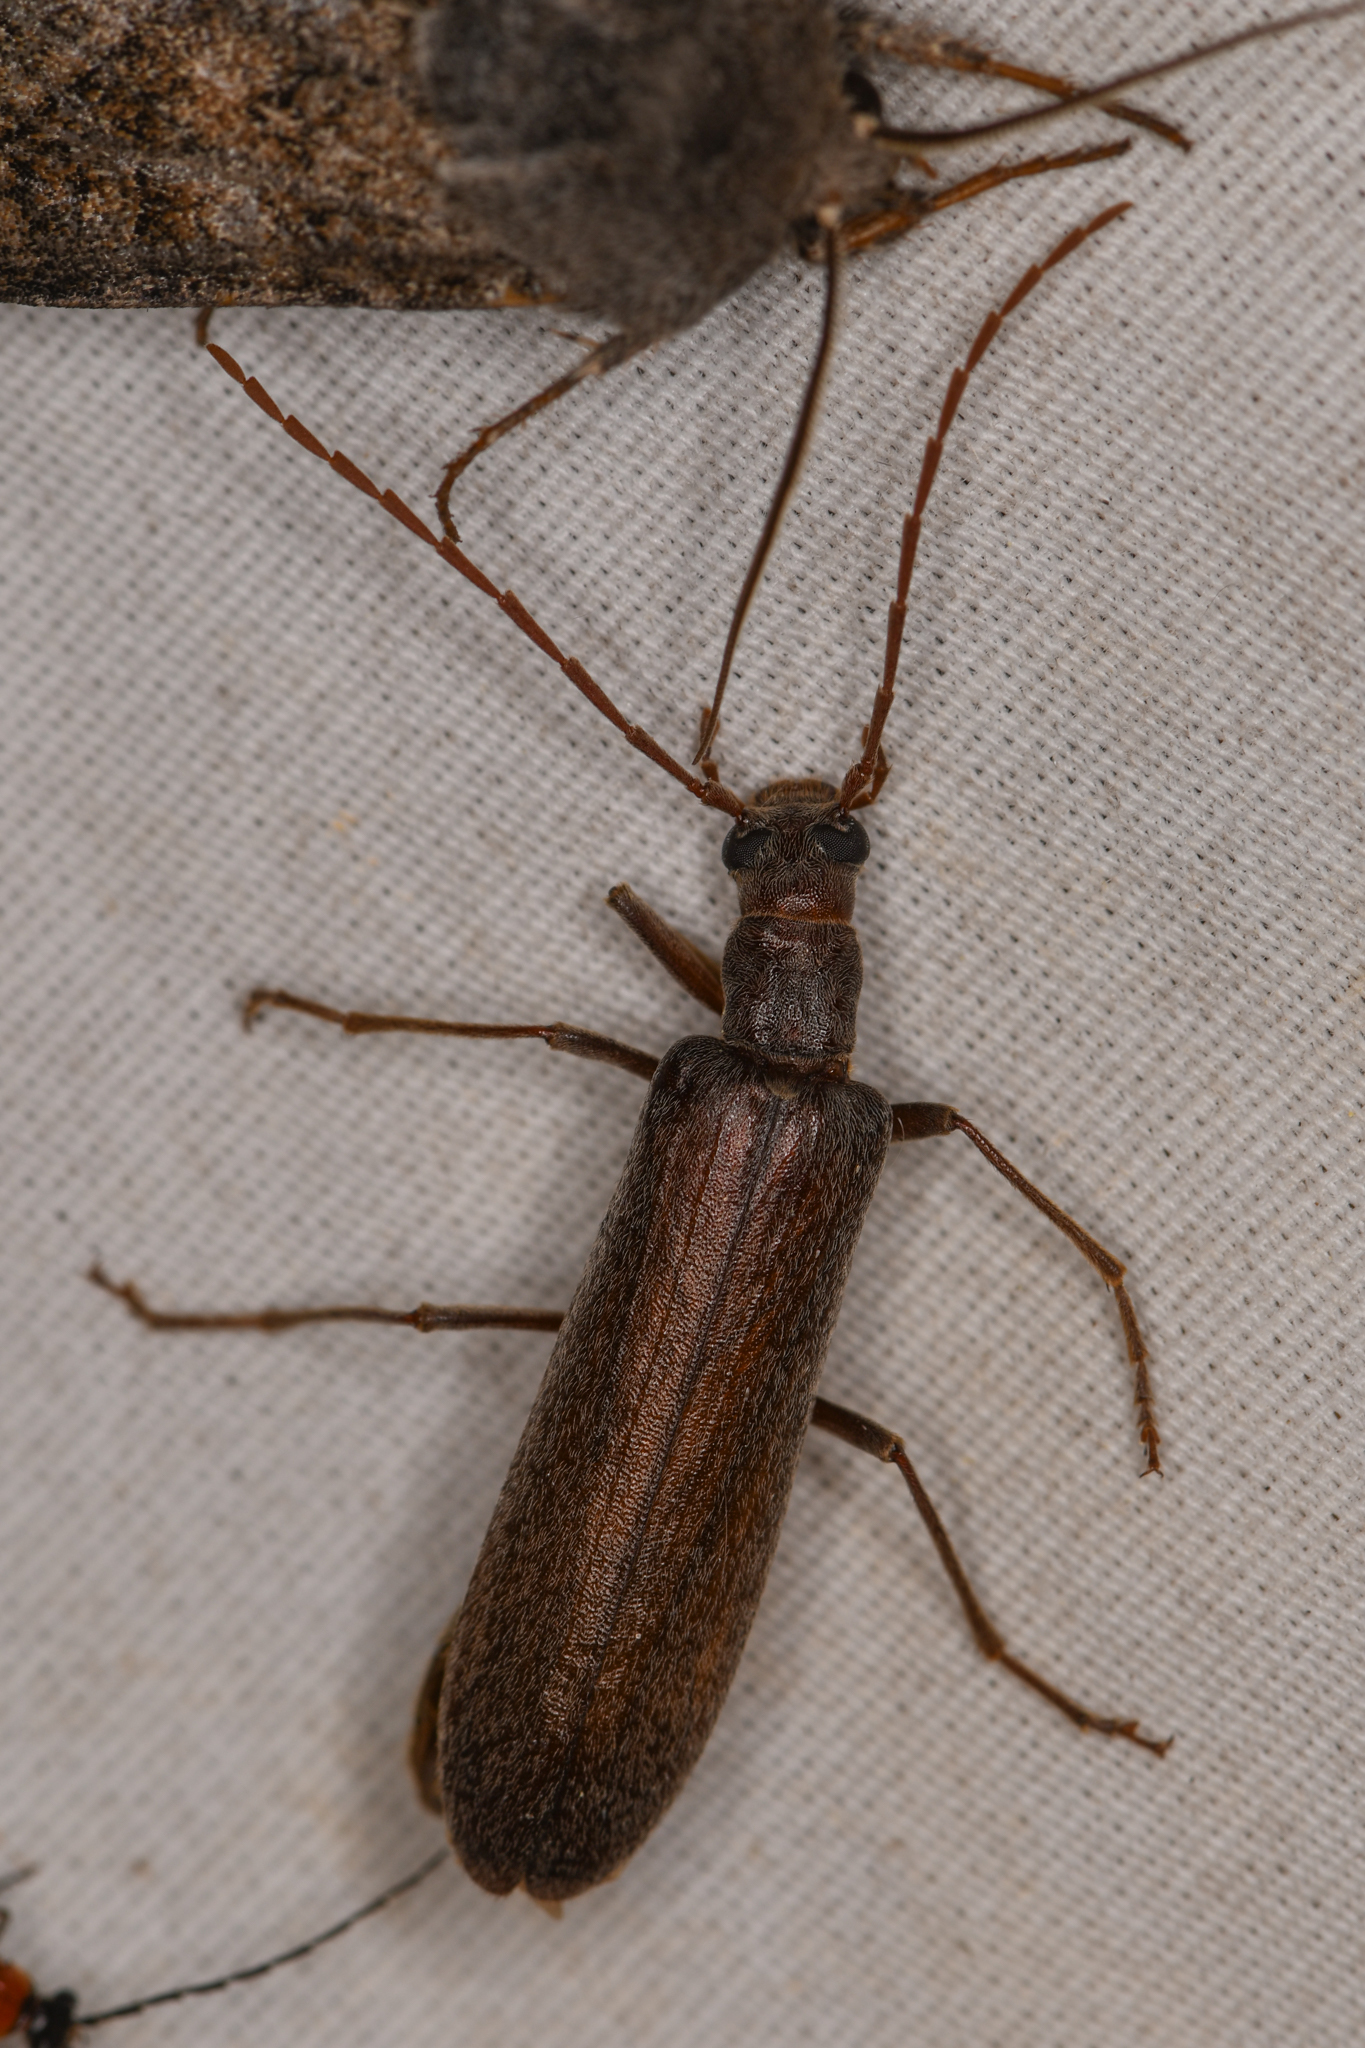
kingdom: Animalia
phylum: Arthropoda
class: Insecta
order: Coleoptera
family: Oedemeridae
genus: Calopus
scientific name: Calopus angustus
